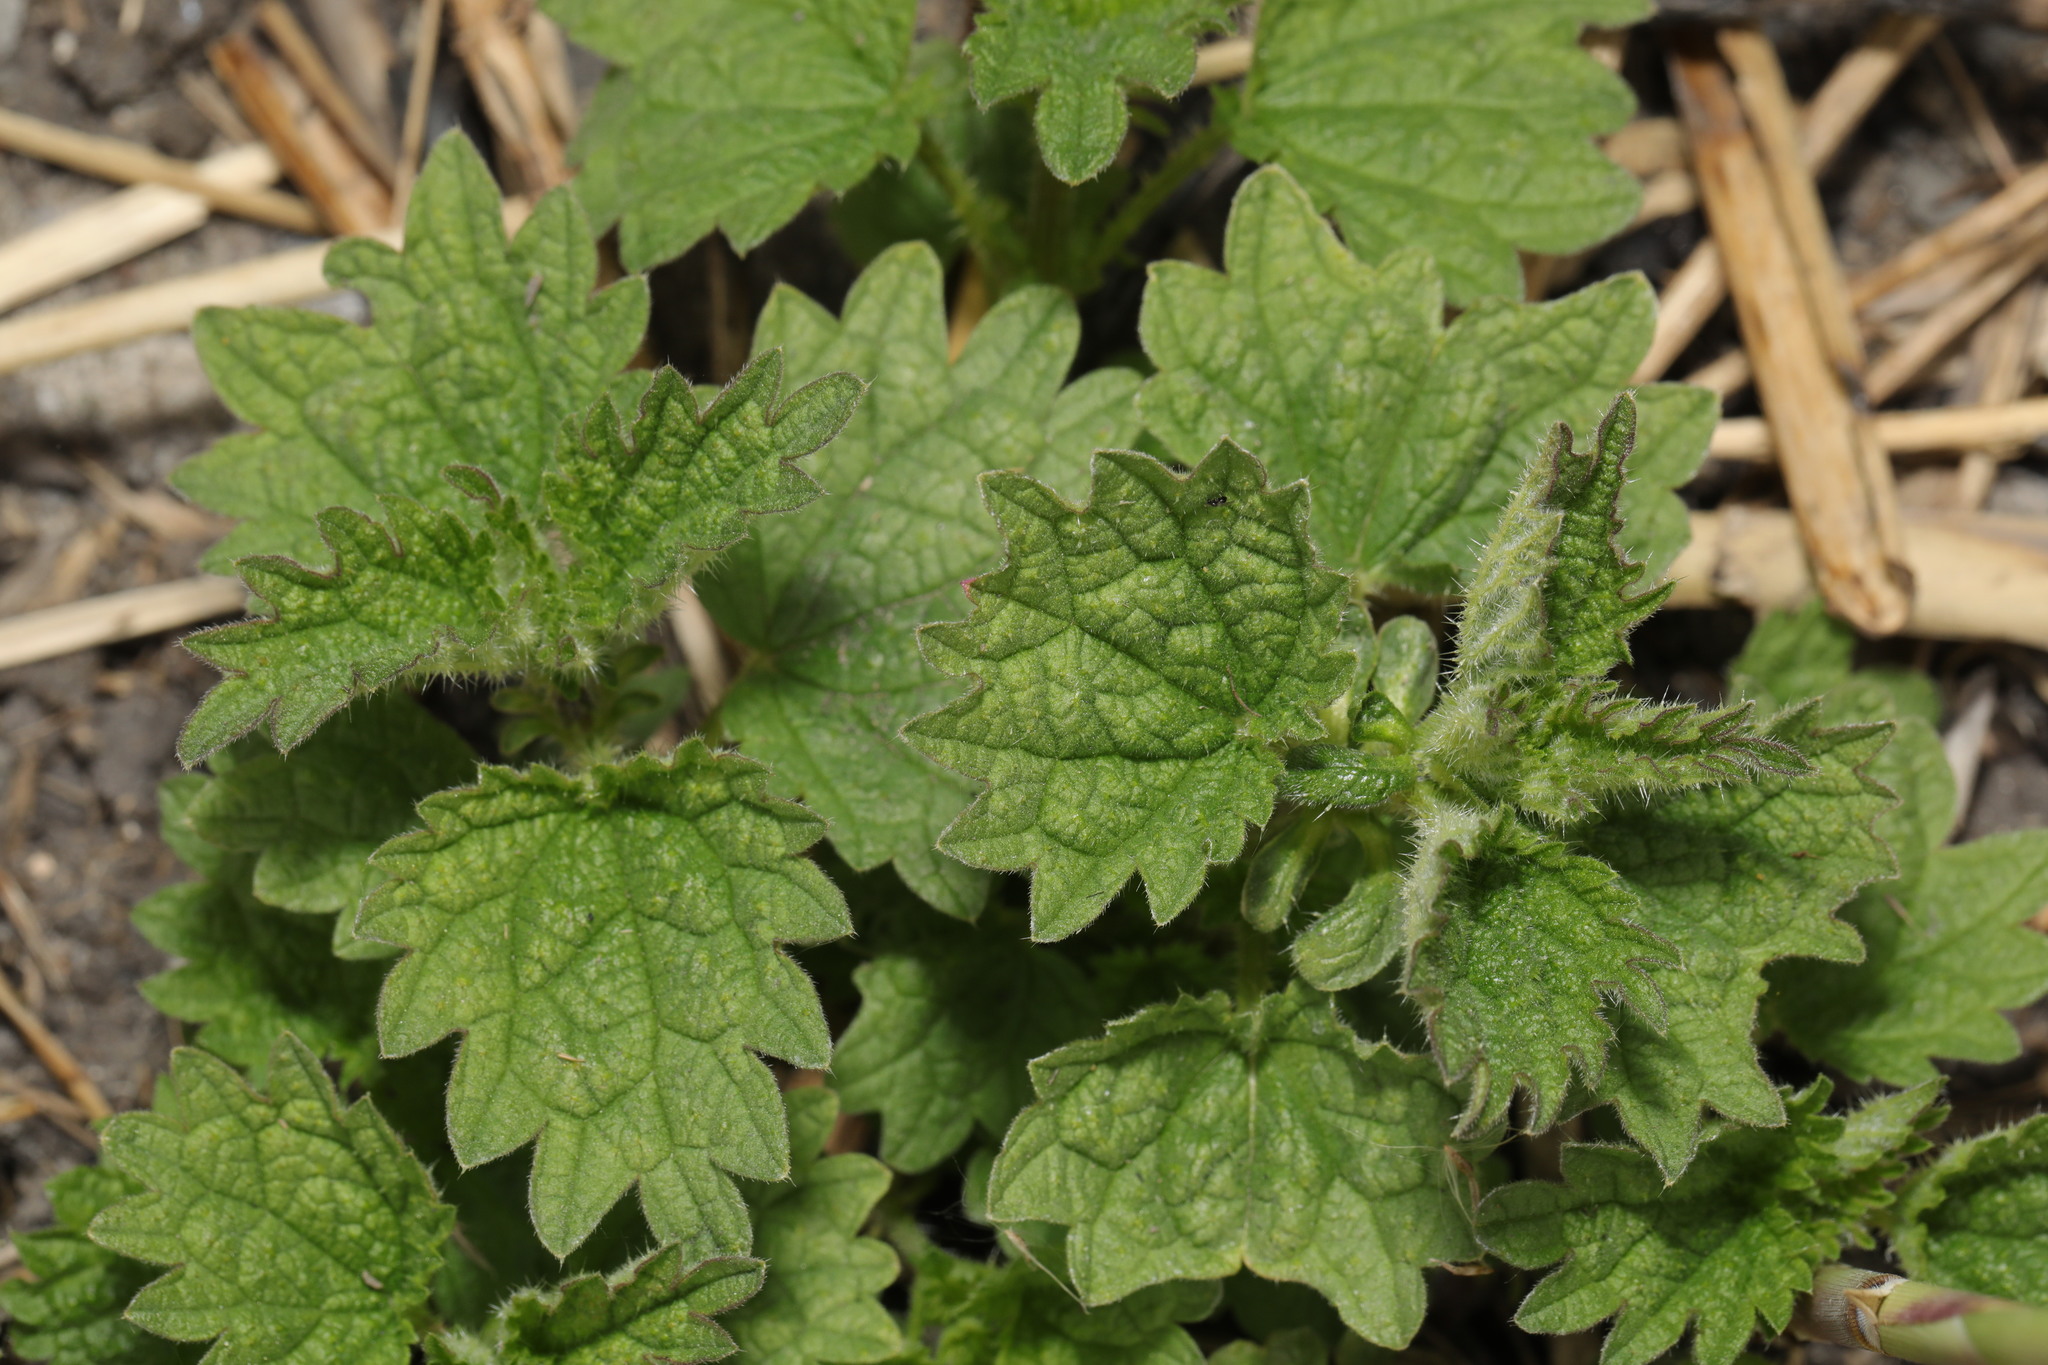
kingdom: Plantae
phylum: Tracheophyta
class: Magnoliopsida
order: Rosales
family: Urticaceae
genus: Urtica
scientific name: Urtica dioica
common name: Common nettle
